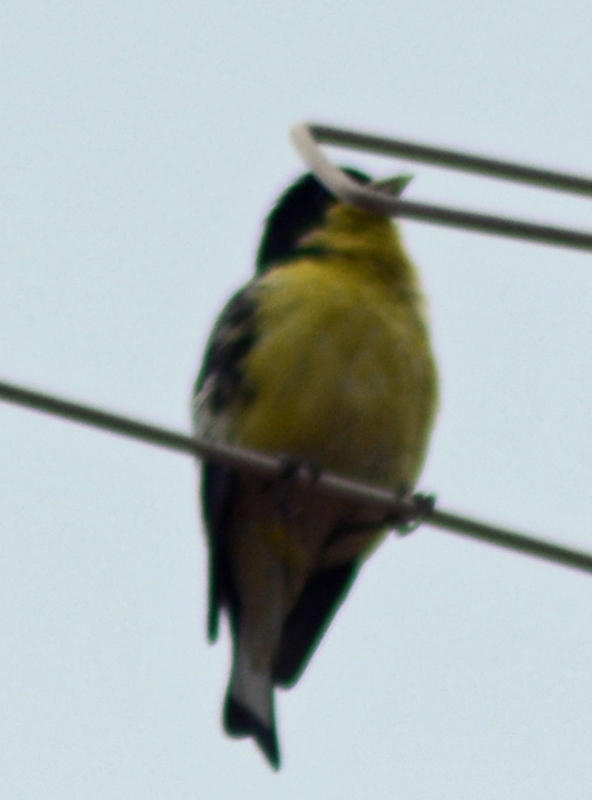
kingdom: Animalia
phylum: Chordata
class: Aves
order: Passeriformes
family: Fringillidae
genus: Spinus
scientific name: Spinus psaltria
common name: Lesser goldfinch
